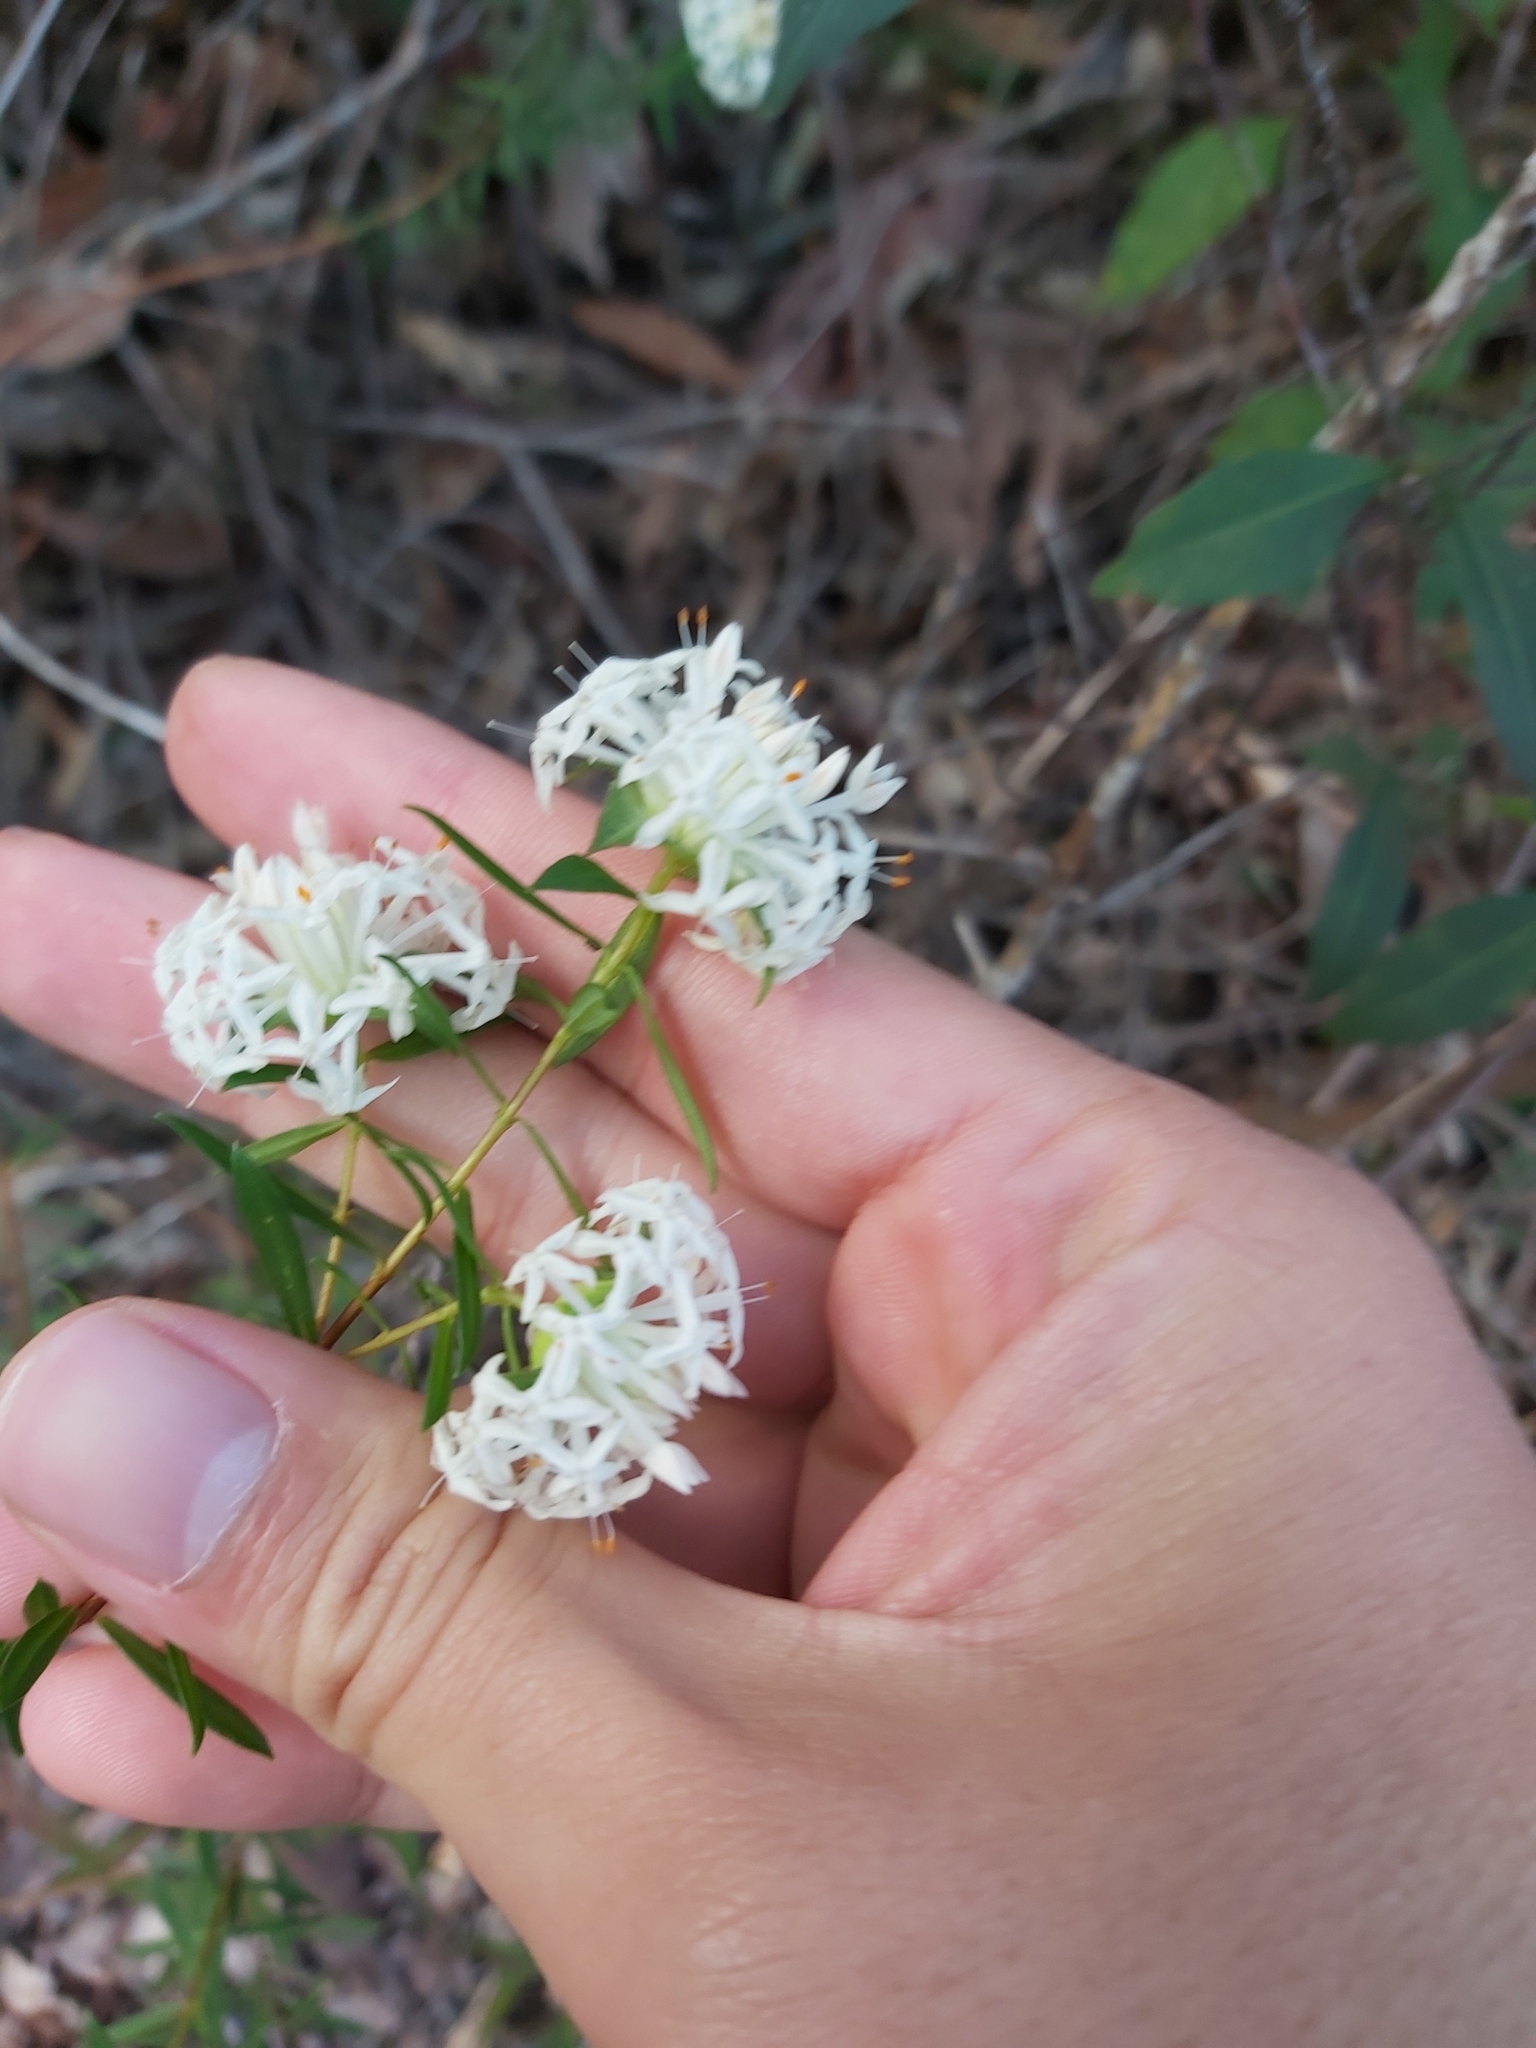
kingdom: Plantae
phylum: Tracheophyta
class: Magnoliopsida
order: Malvales
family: Thymelaeaceae
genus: Pimelea
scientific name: Pimelea linifolia
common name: Queen-of-the-bush
